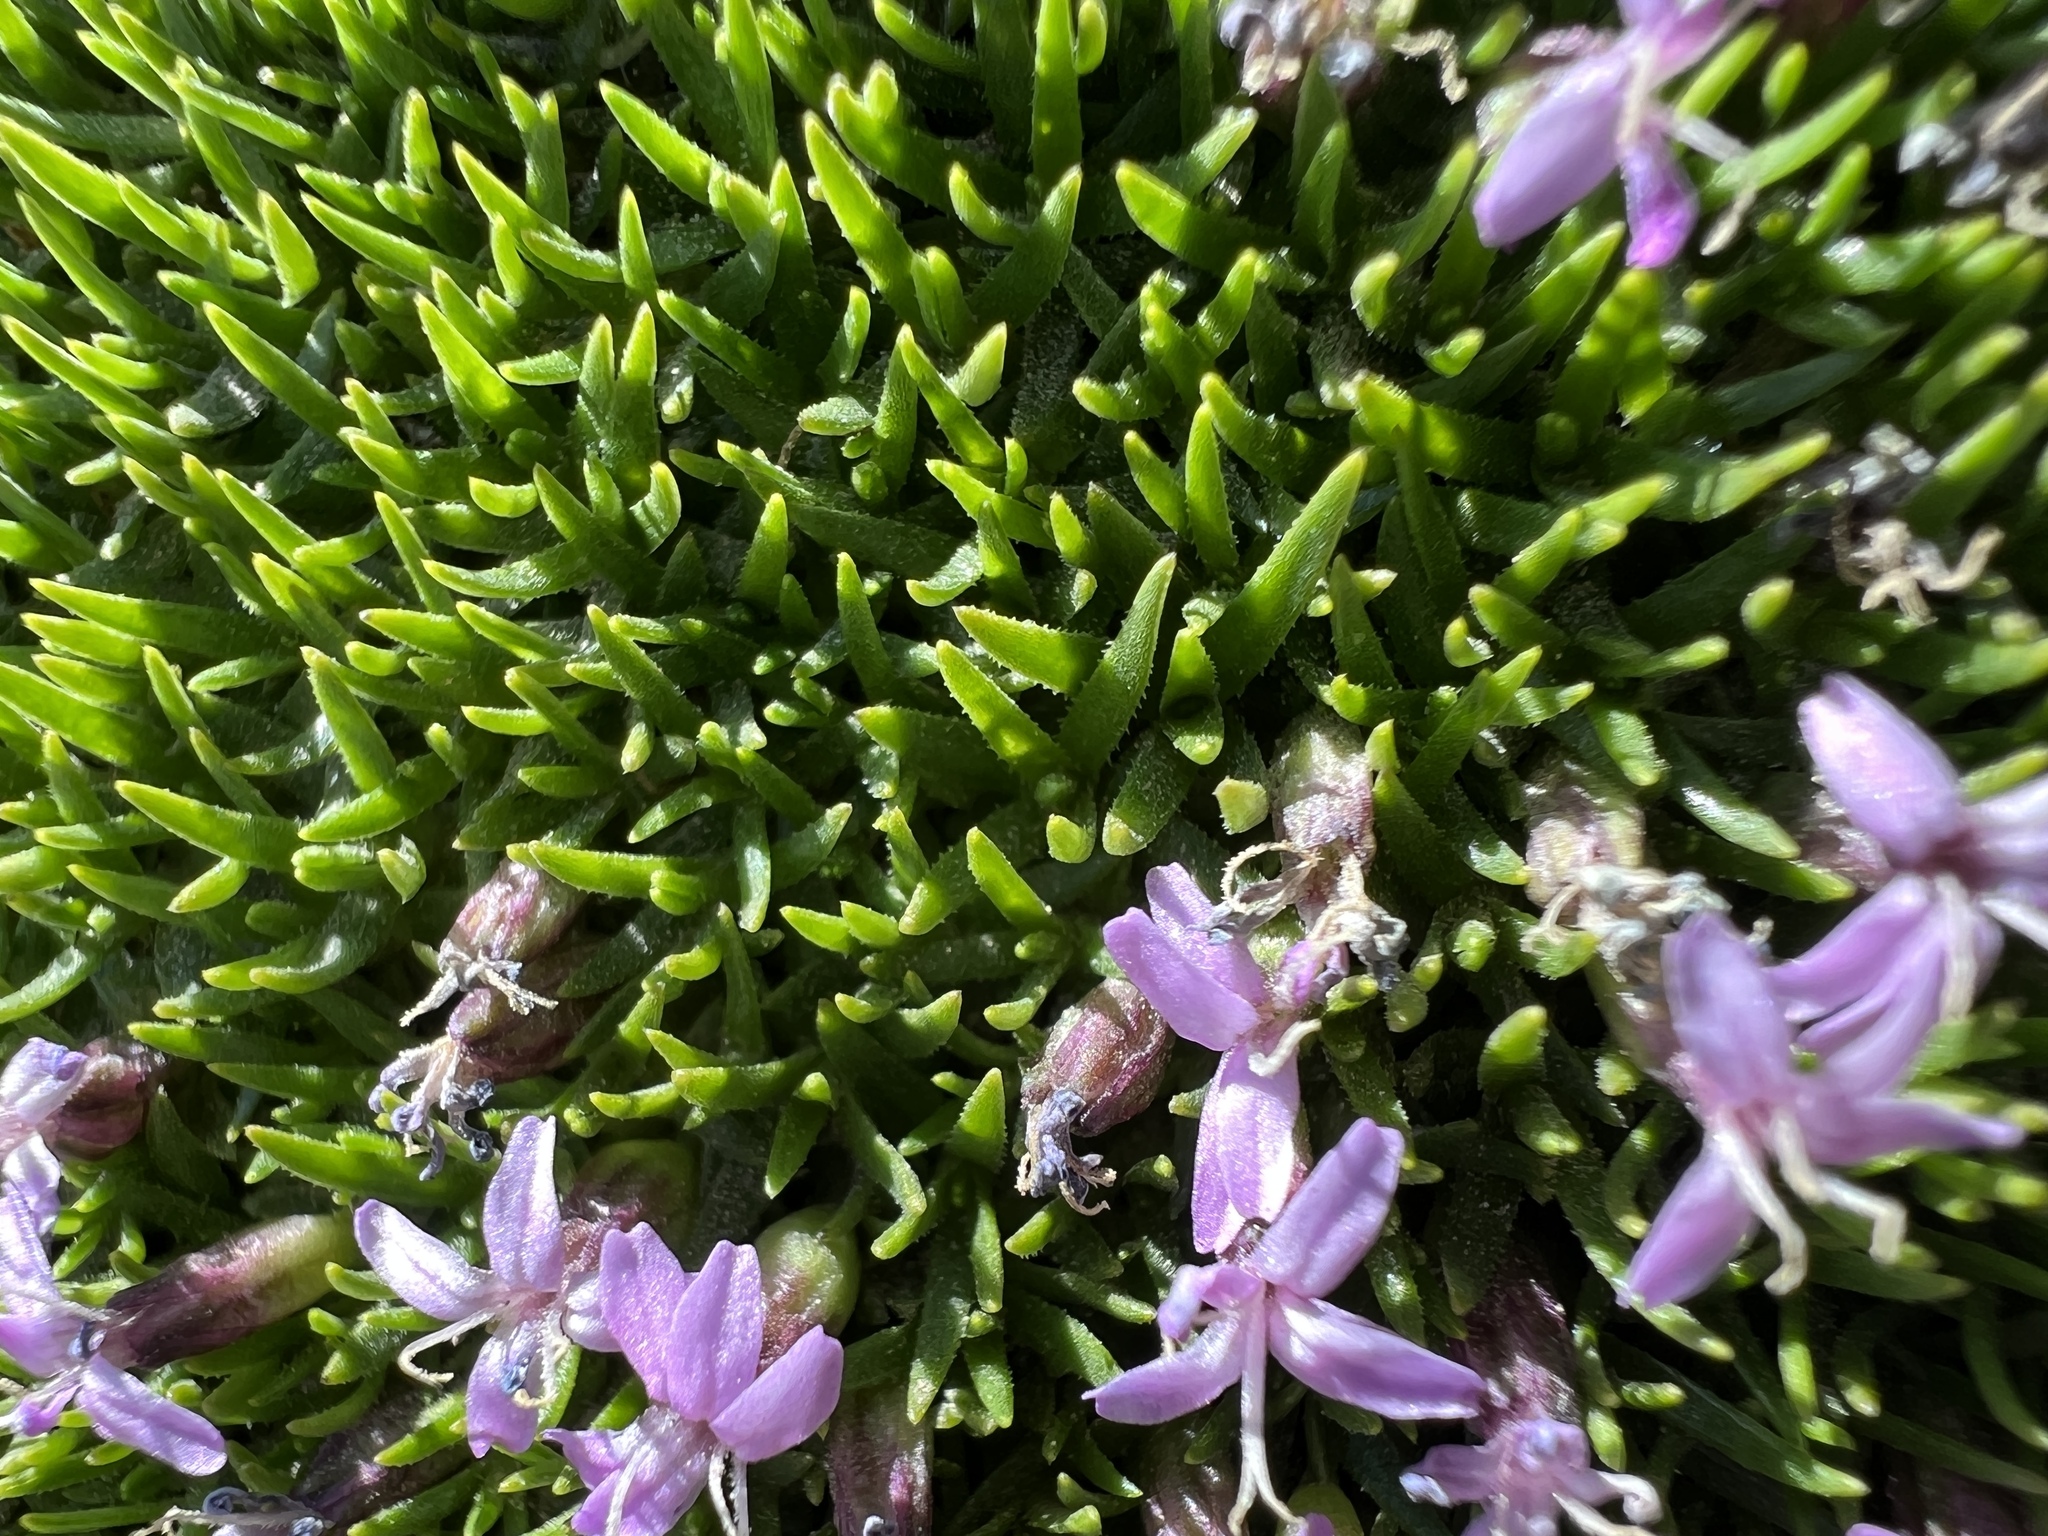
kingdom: Plantae
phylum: Tracheophyta
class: Magnoliopsida
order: Caryophyllales
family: Caryophyllaceae
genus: Silene
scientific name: Silene acaulis
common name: Moss campion
